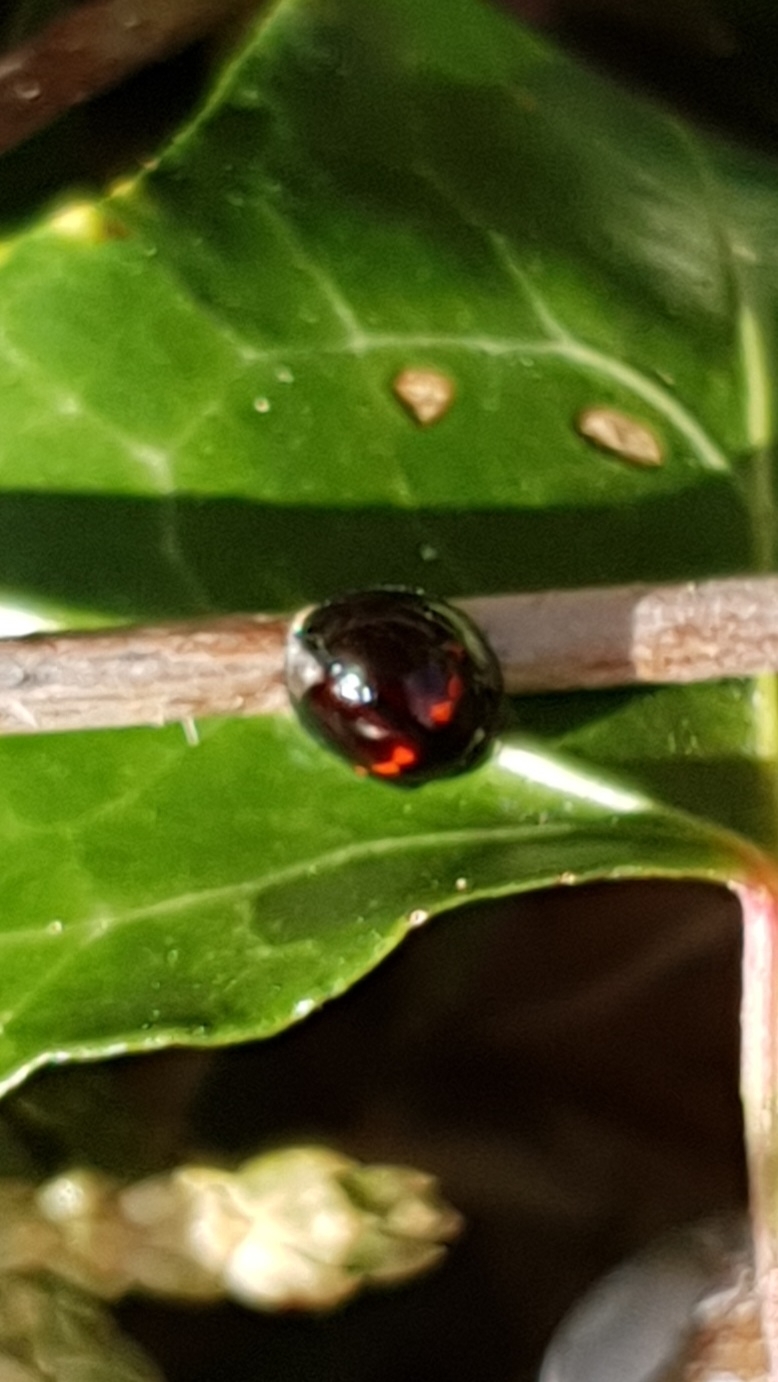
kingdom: Animalia
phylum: Arthropoda
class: Insecta
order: Coleoptera
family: Coccinellidae
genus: Chilocorus
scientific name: Chilocorus bipustulatus
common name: Heather ladybird
